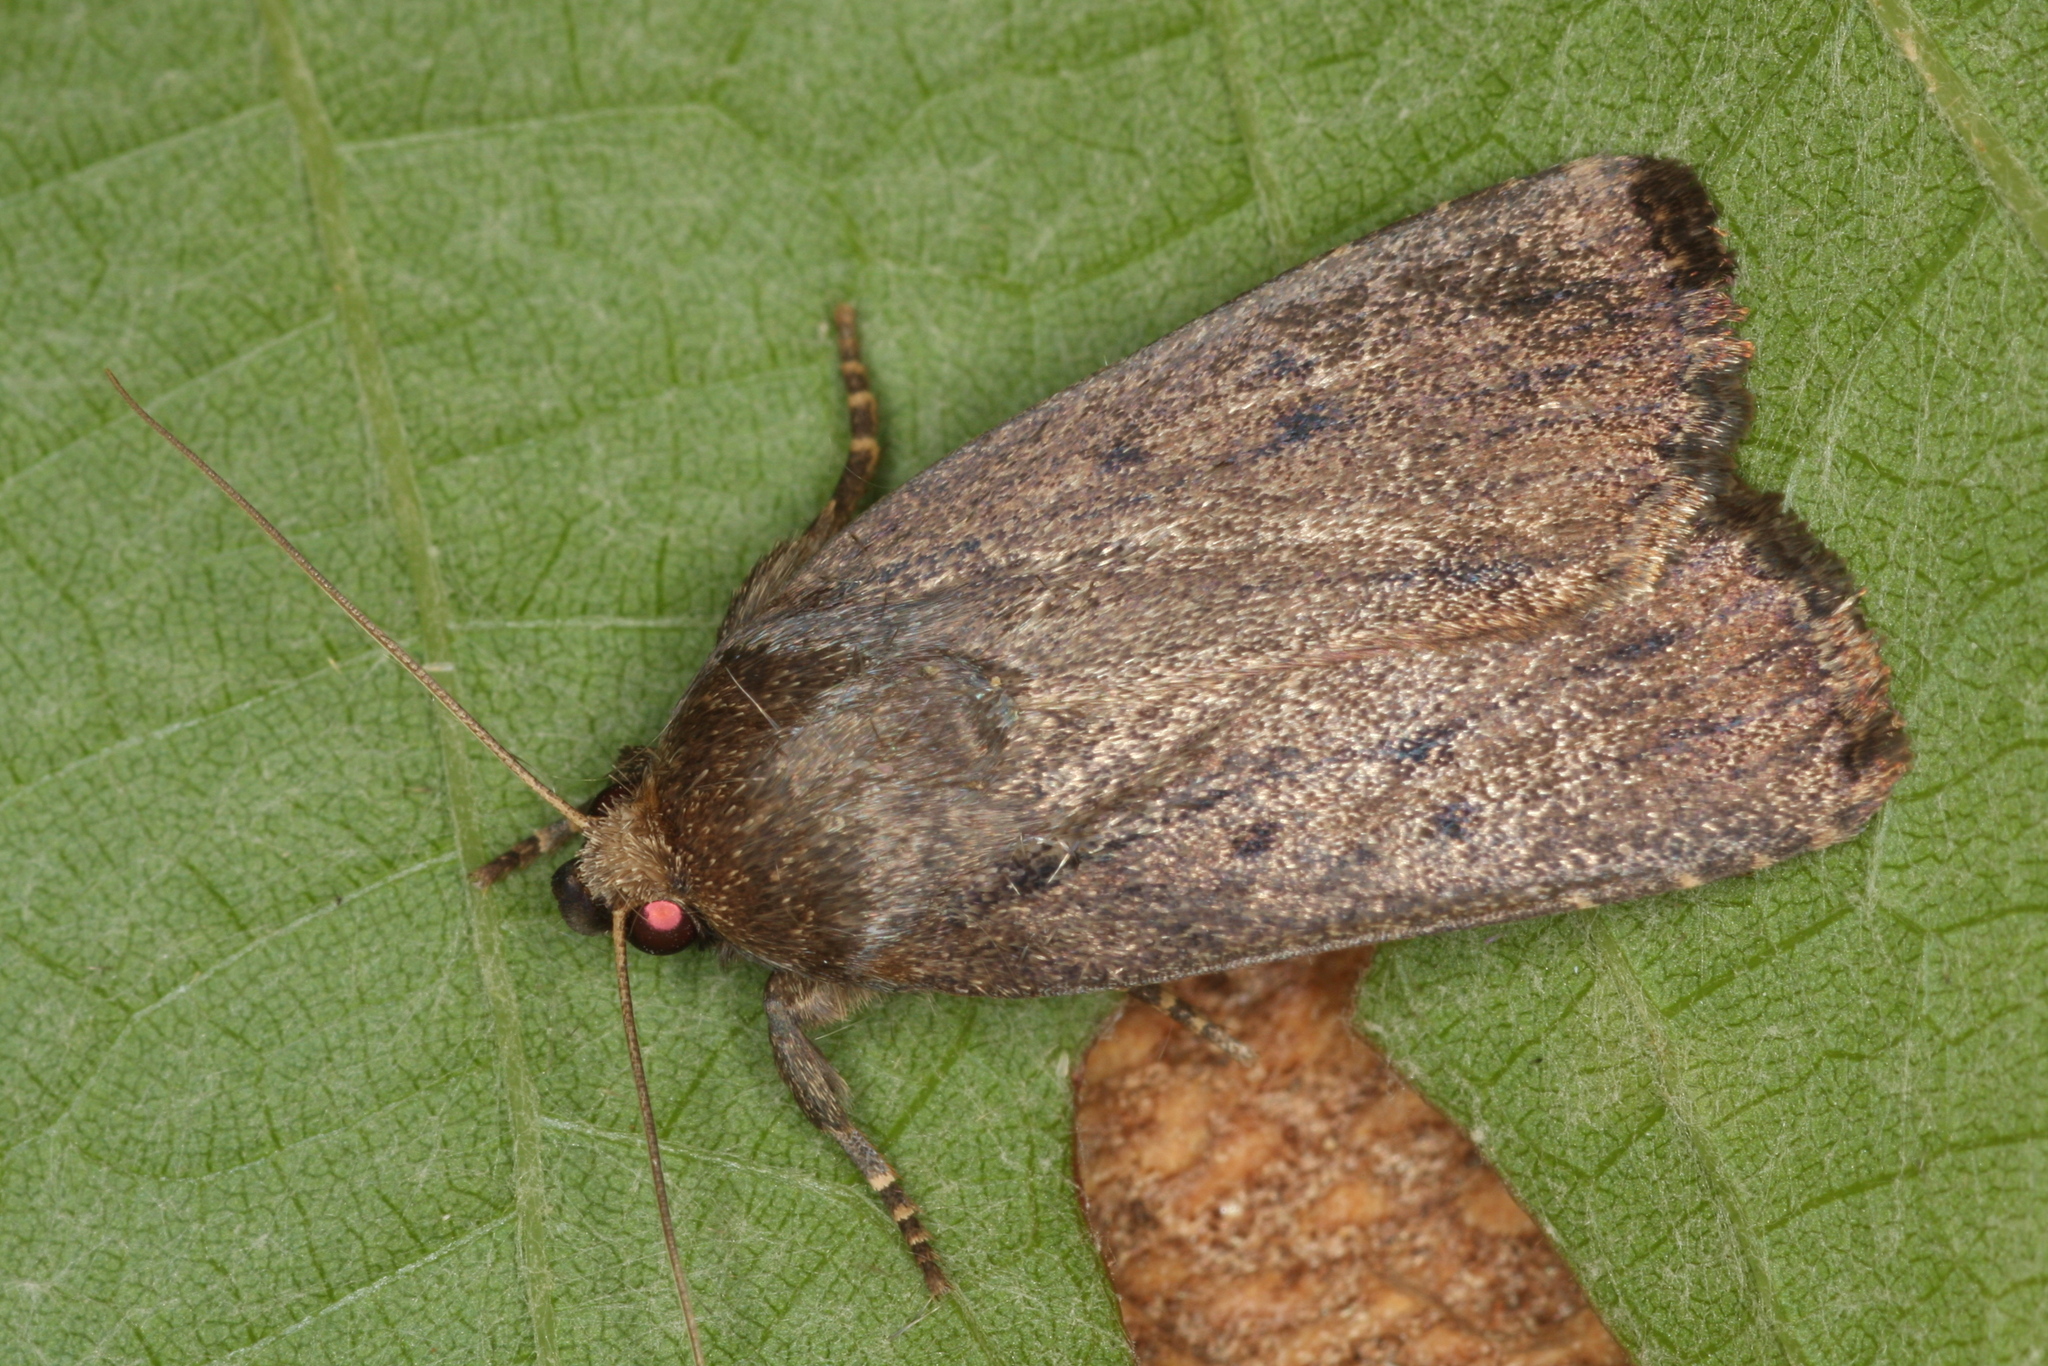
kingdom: Animalia
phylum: Arthropoda
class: Insecta
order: Lepidoptera
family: Noctuidae
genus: Amphipyra
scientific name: Amphipyra tragopoginis
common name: Mouse moth
